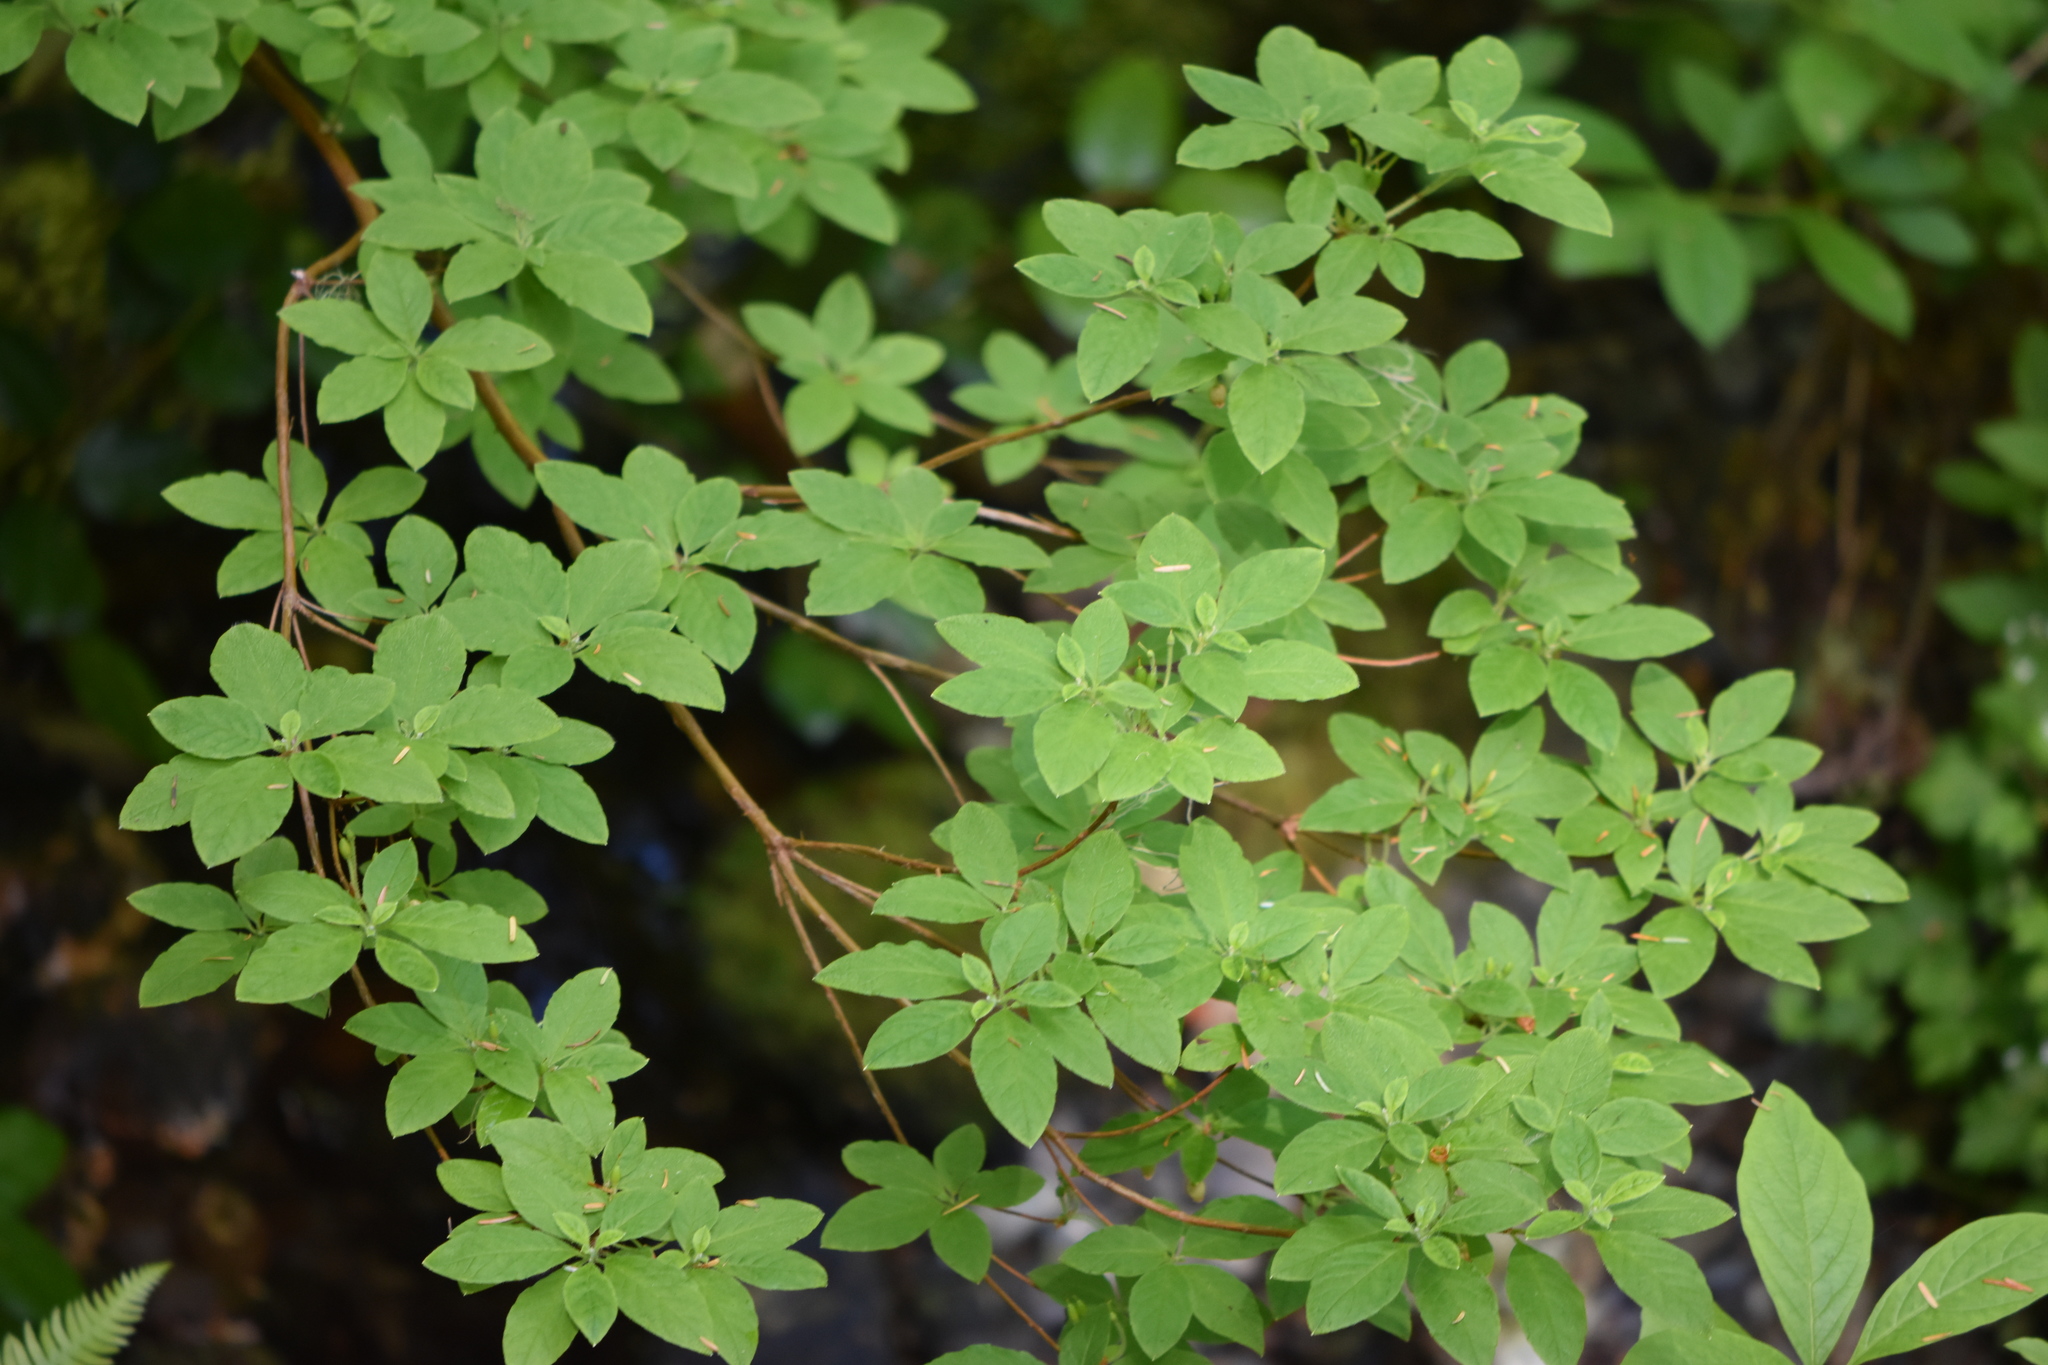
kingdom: Plantae
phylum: Tracheophyta
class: Magnoliopsida
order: Ericales
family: Ericaceae
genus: Rhododendron
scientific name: Rhododendron menziesii
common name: Pacific menziesia
